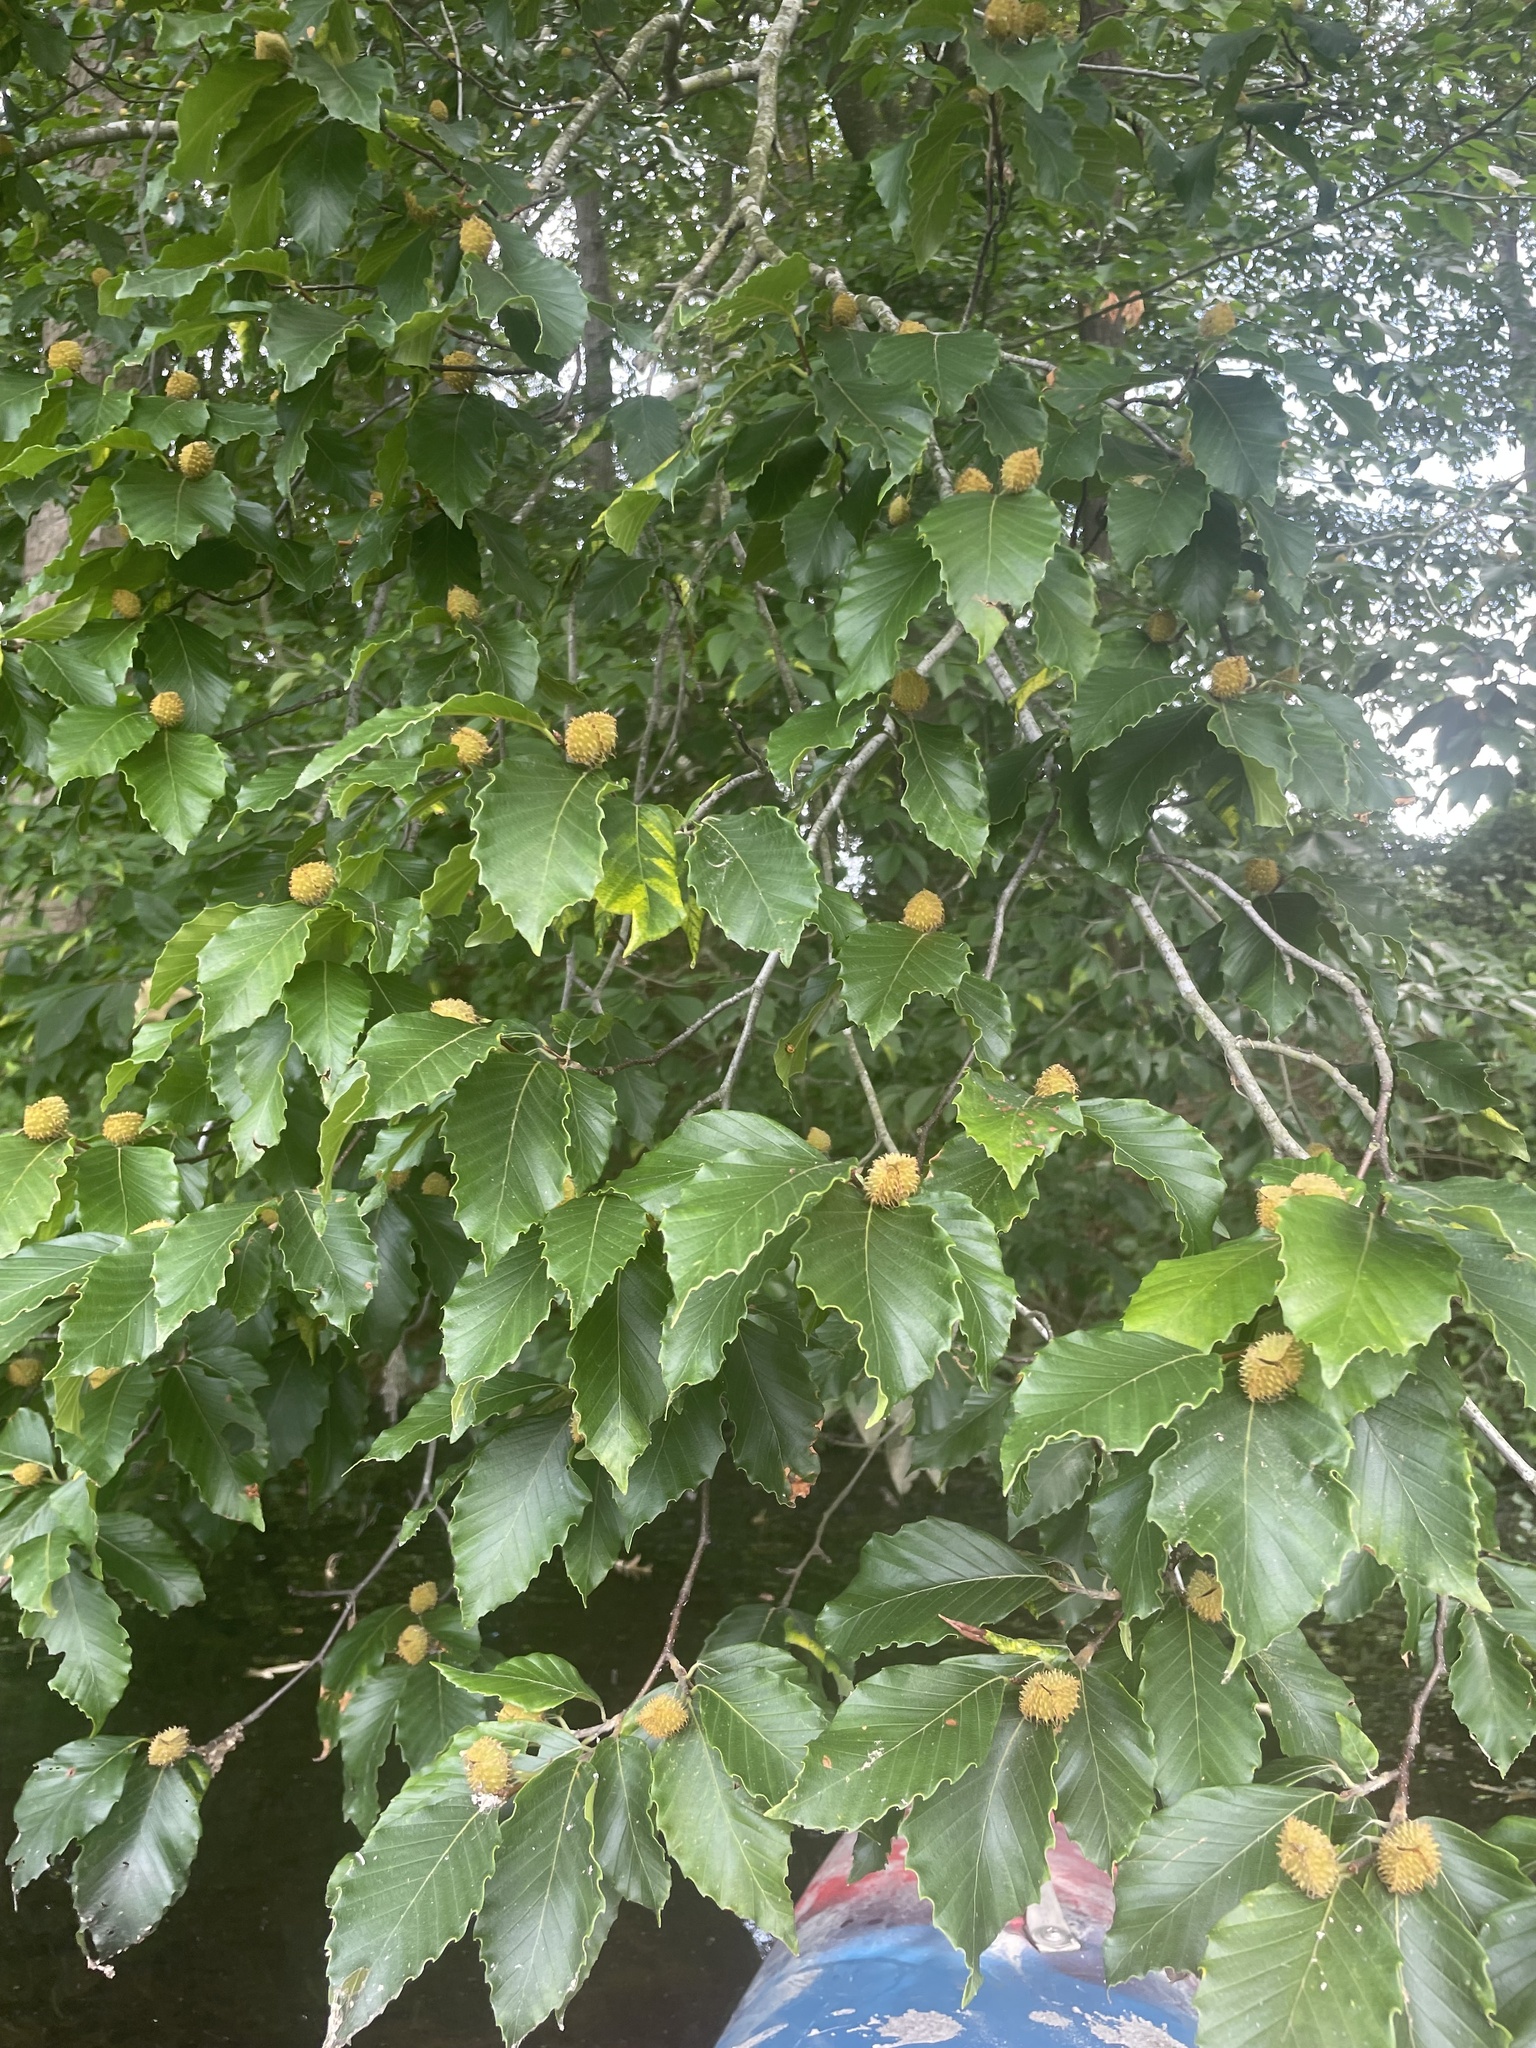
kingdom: Plantae
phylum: Tracheophyta
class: Magnoliopsida
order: Fagales
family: Fagaceae
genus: Fagus
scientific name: Fagus grandifolia
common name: American beech
